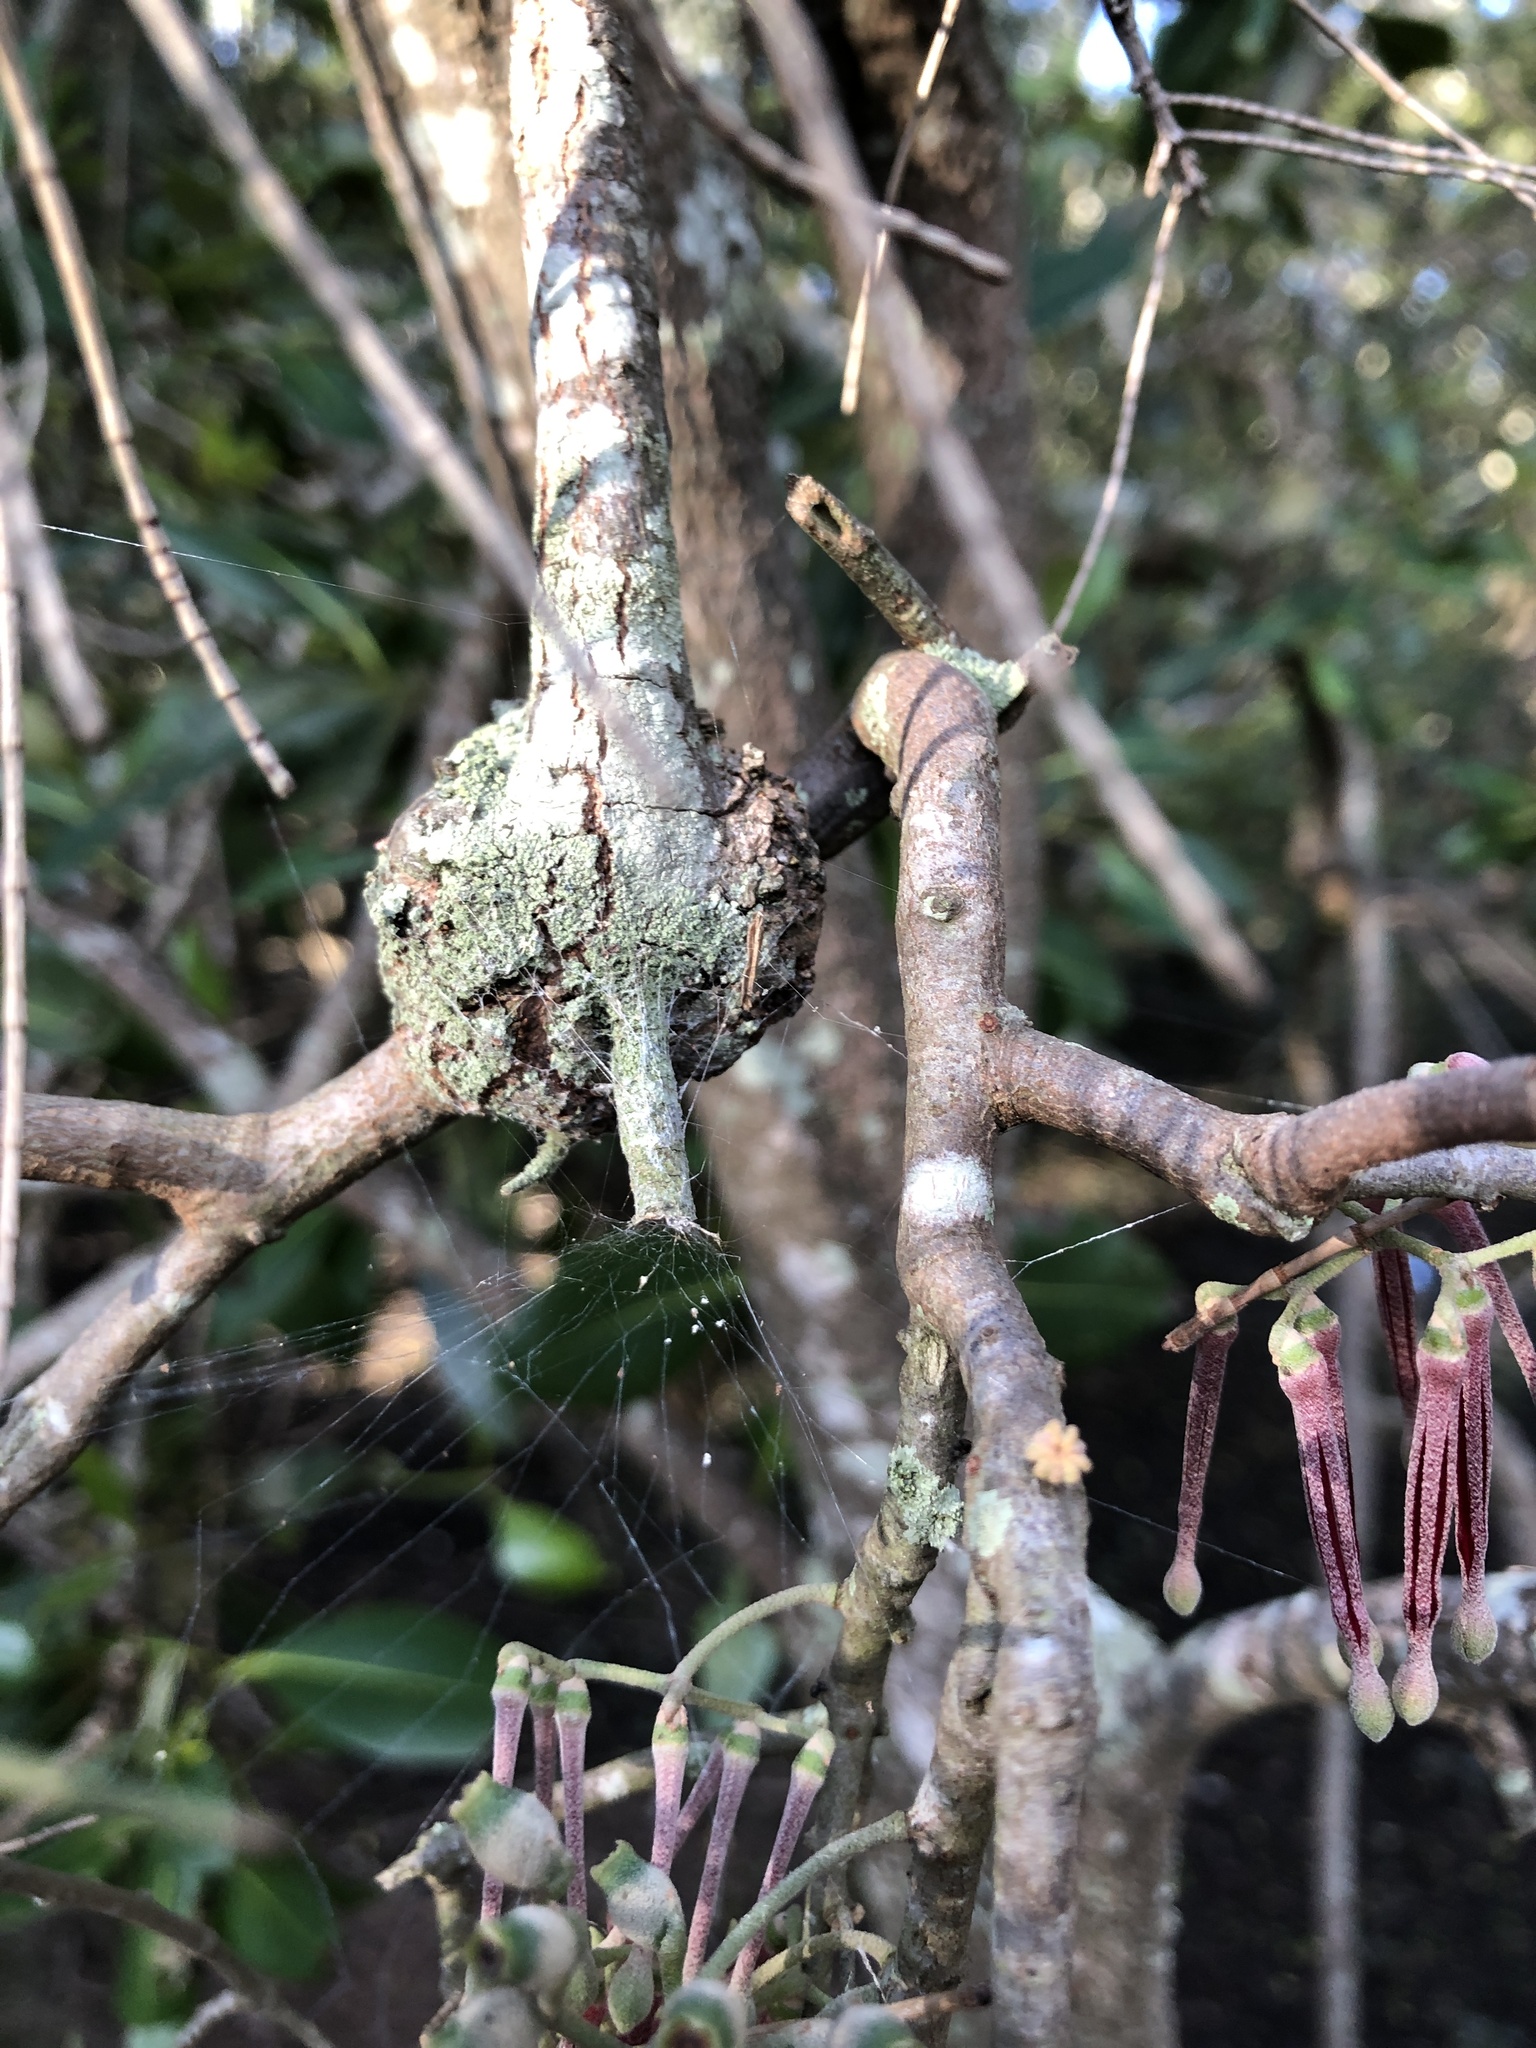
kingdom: Plantae
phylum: Tracheophyta
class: Magnoliopsida
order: Santalales
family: Loranthaceae
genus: Amyema
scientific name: Amyema cambagei
